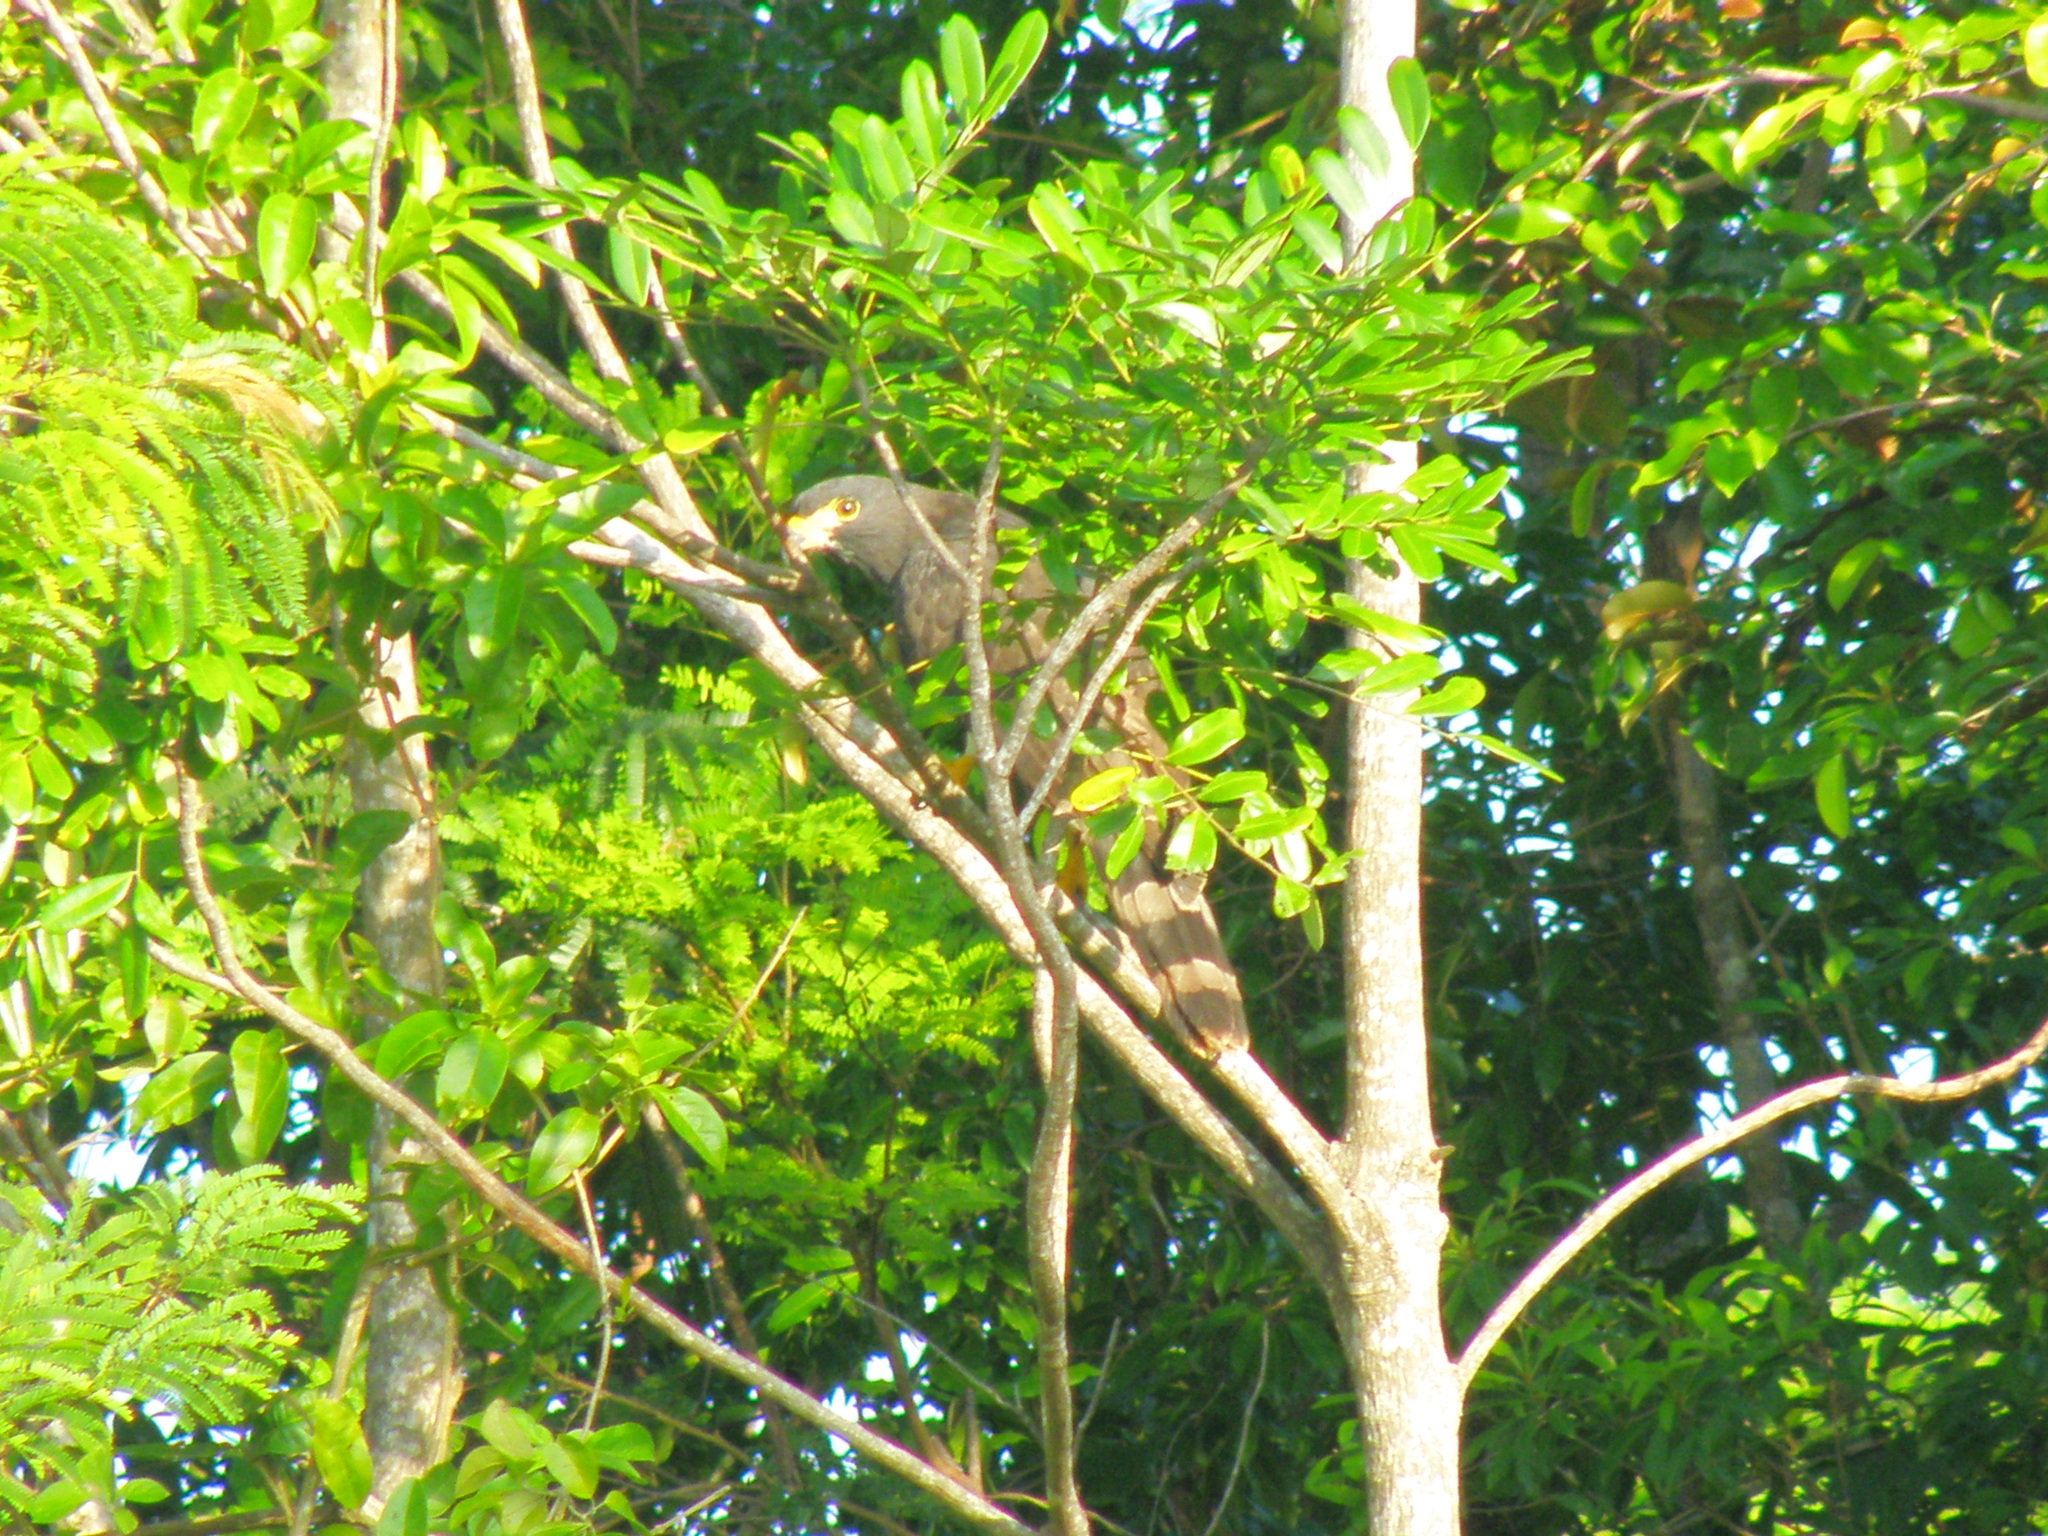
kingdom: Animalia
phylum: Chordata
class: Aves
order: Accipitriformes
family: Accipitridae
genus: Leptodon
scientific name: Leptodon cayanensis
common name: Gray-headed kite
